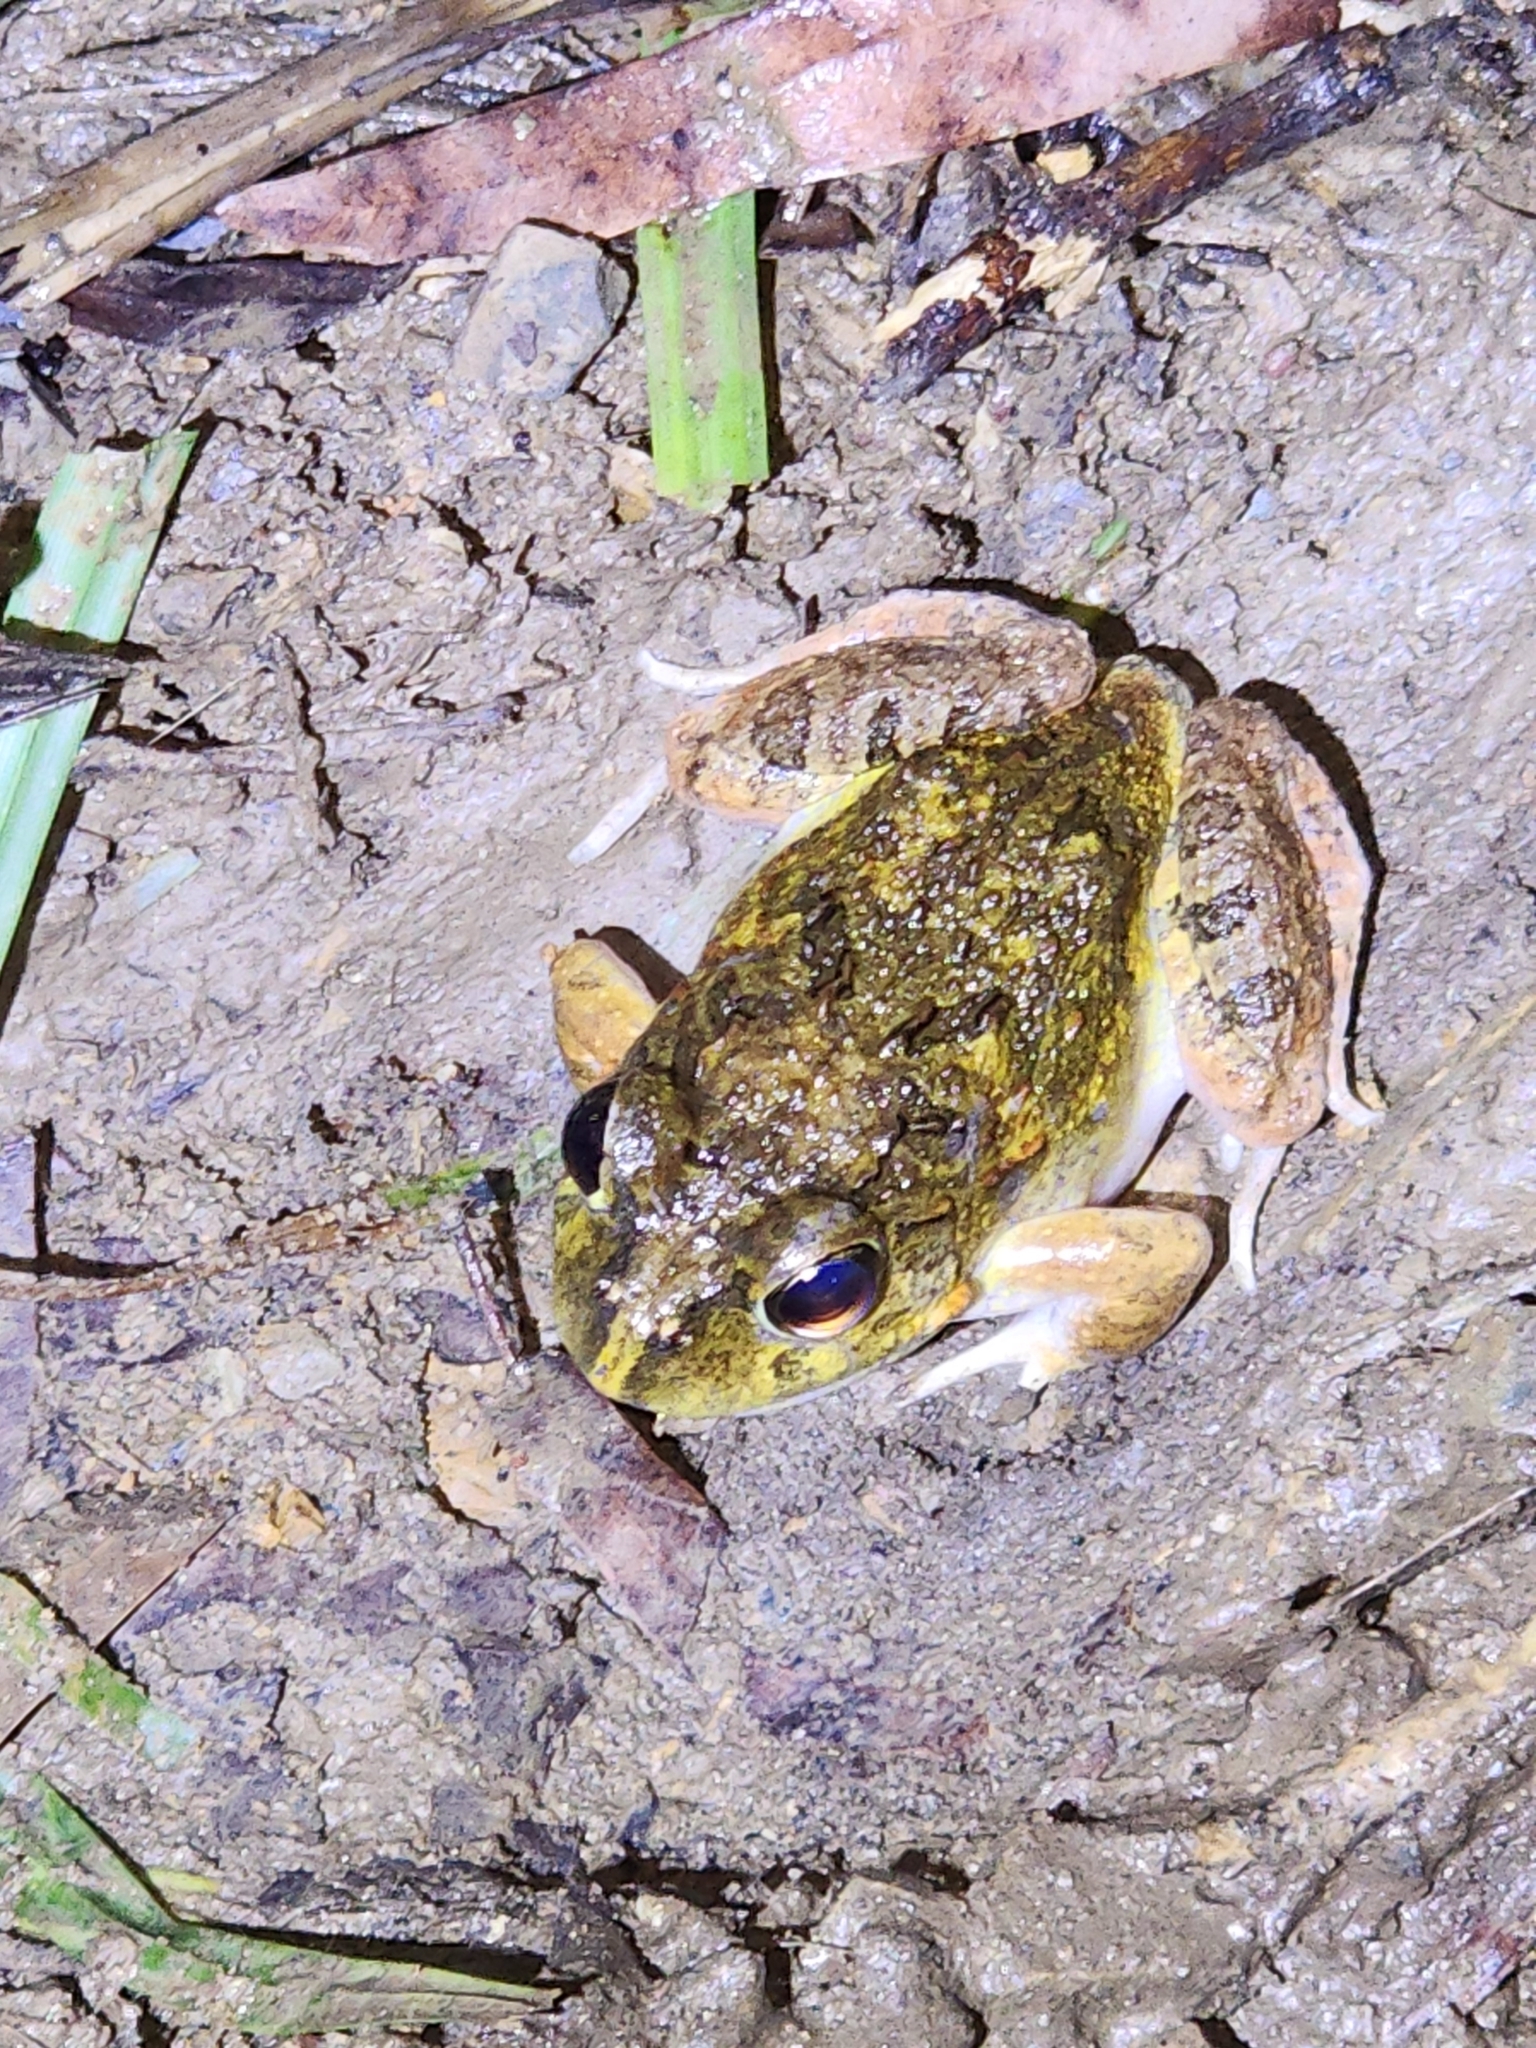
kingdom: Animalia
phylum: Chordata
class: Amphibia
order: Anura
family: Limnodynastidae
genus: Platyplectrum
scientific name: Platyplectrum ornatum
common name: Ornate burrowing frog
